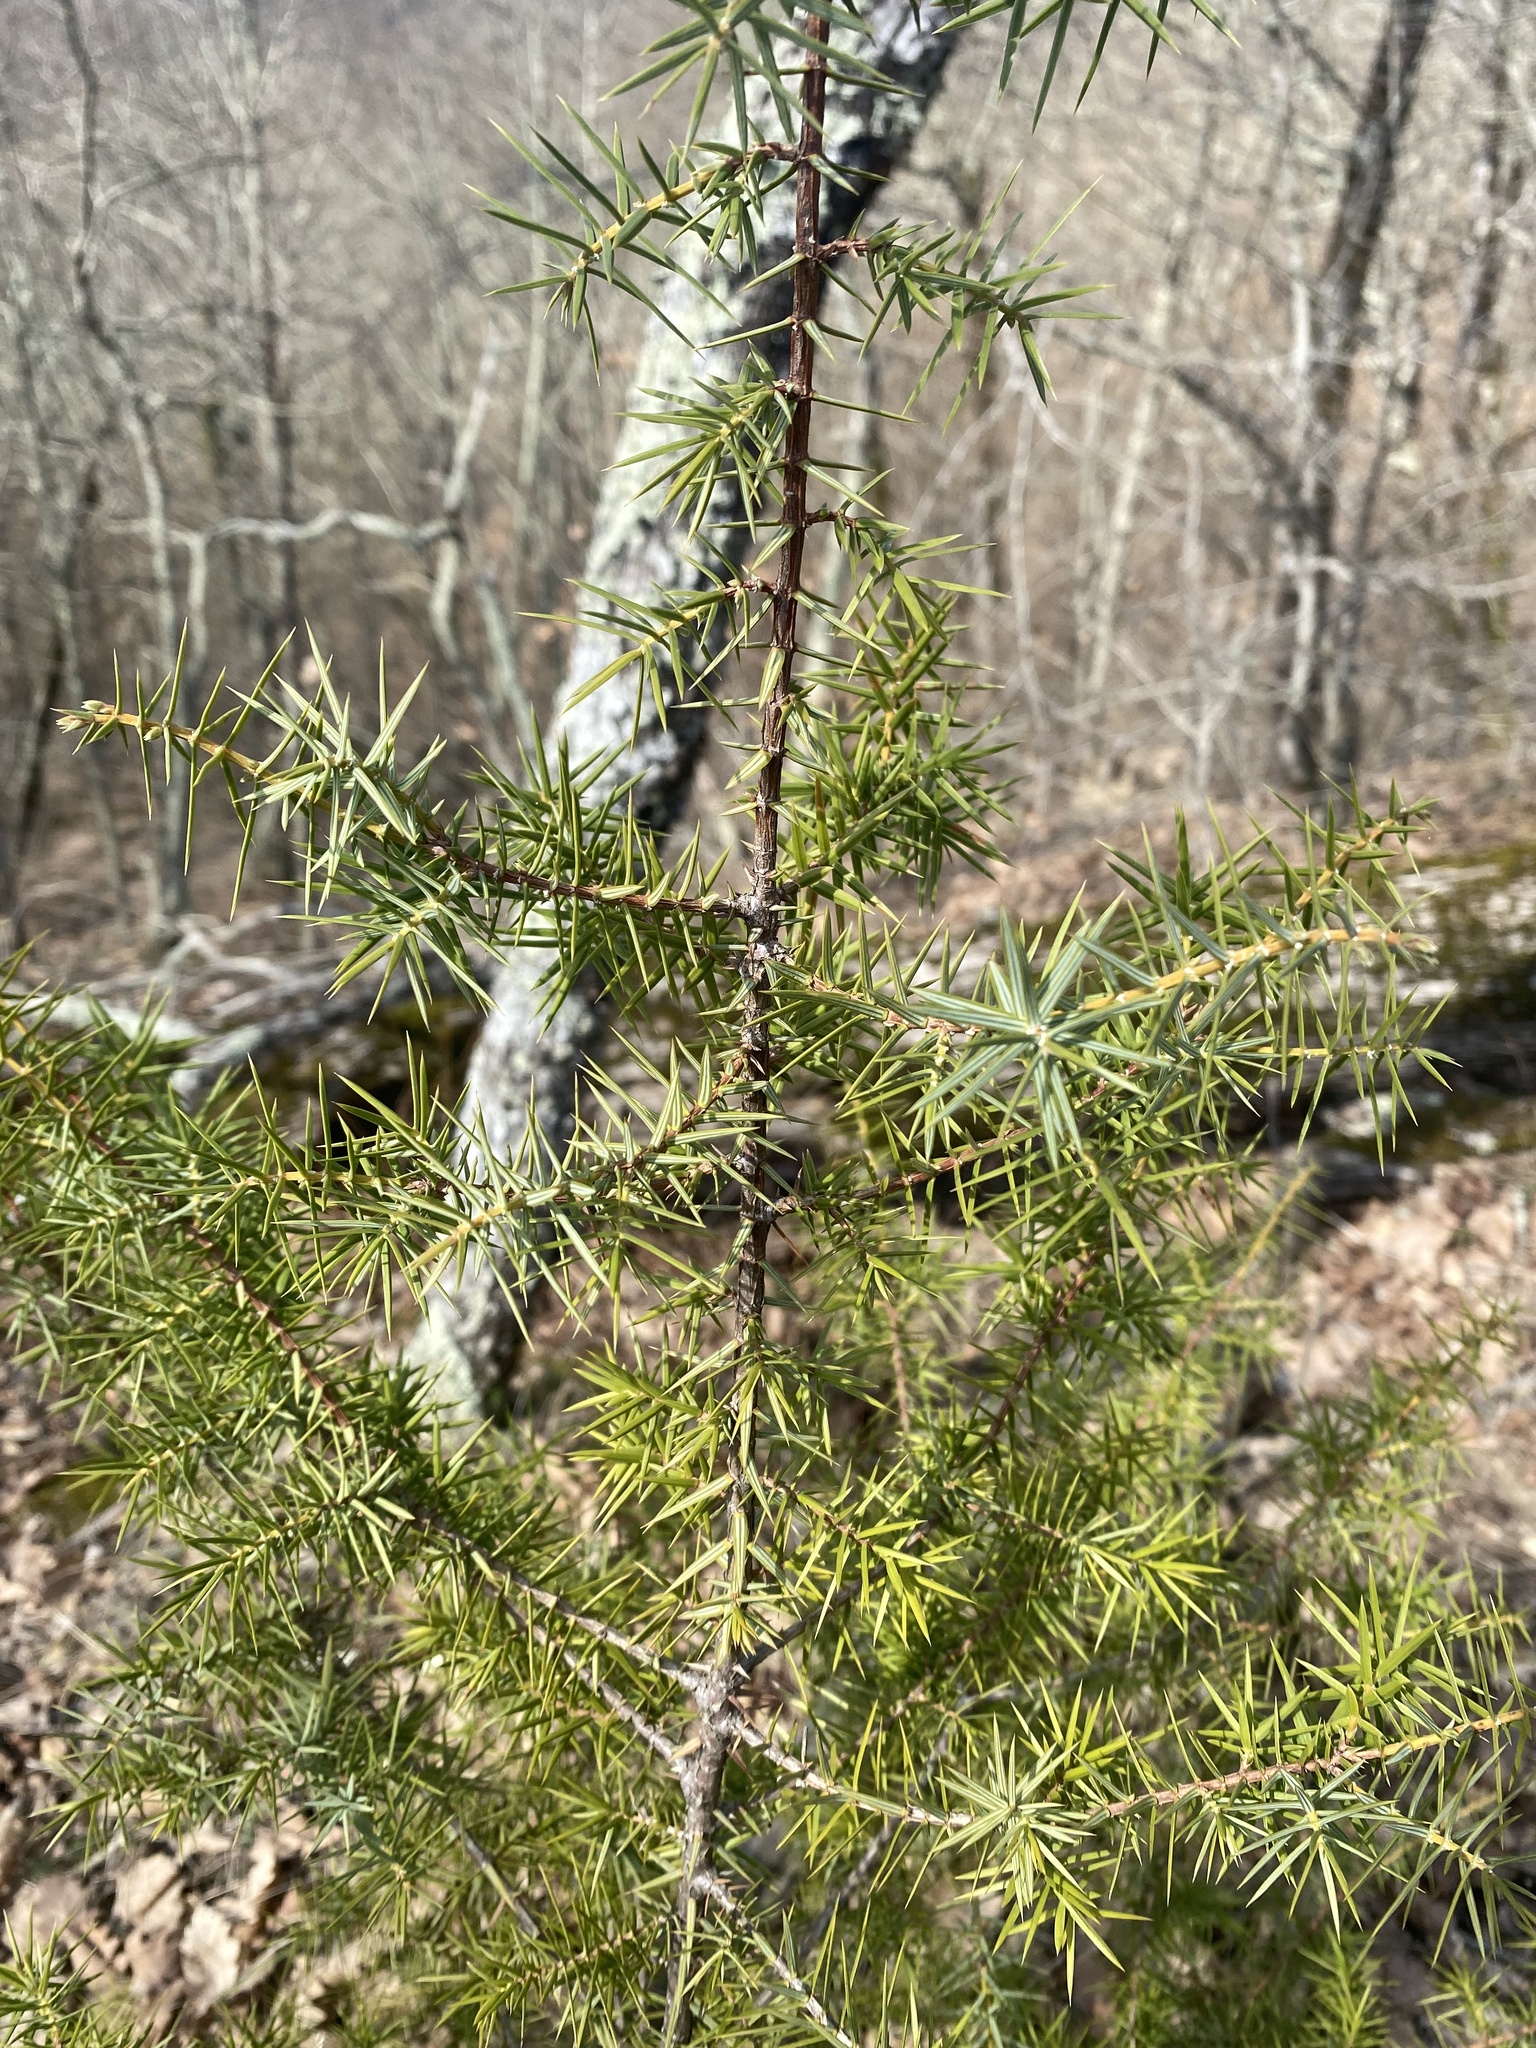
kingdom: Plantae
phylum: Tracheophyta
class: Pinopsida
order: Pinales
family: Cupressaceae
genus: Juniperus
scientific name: Juniperus oxycedrus
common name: Prickly juniper
